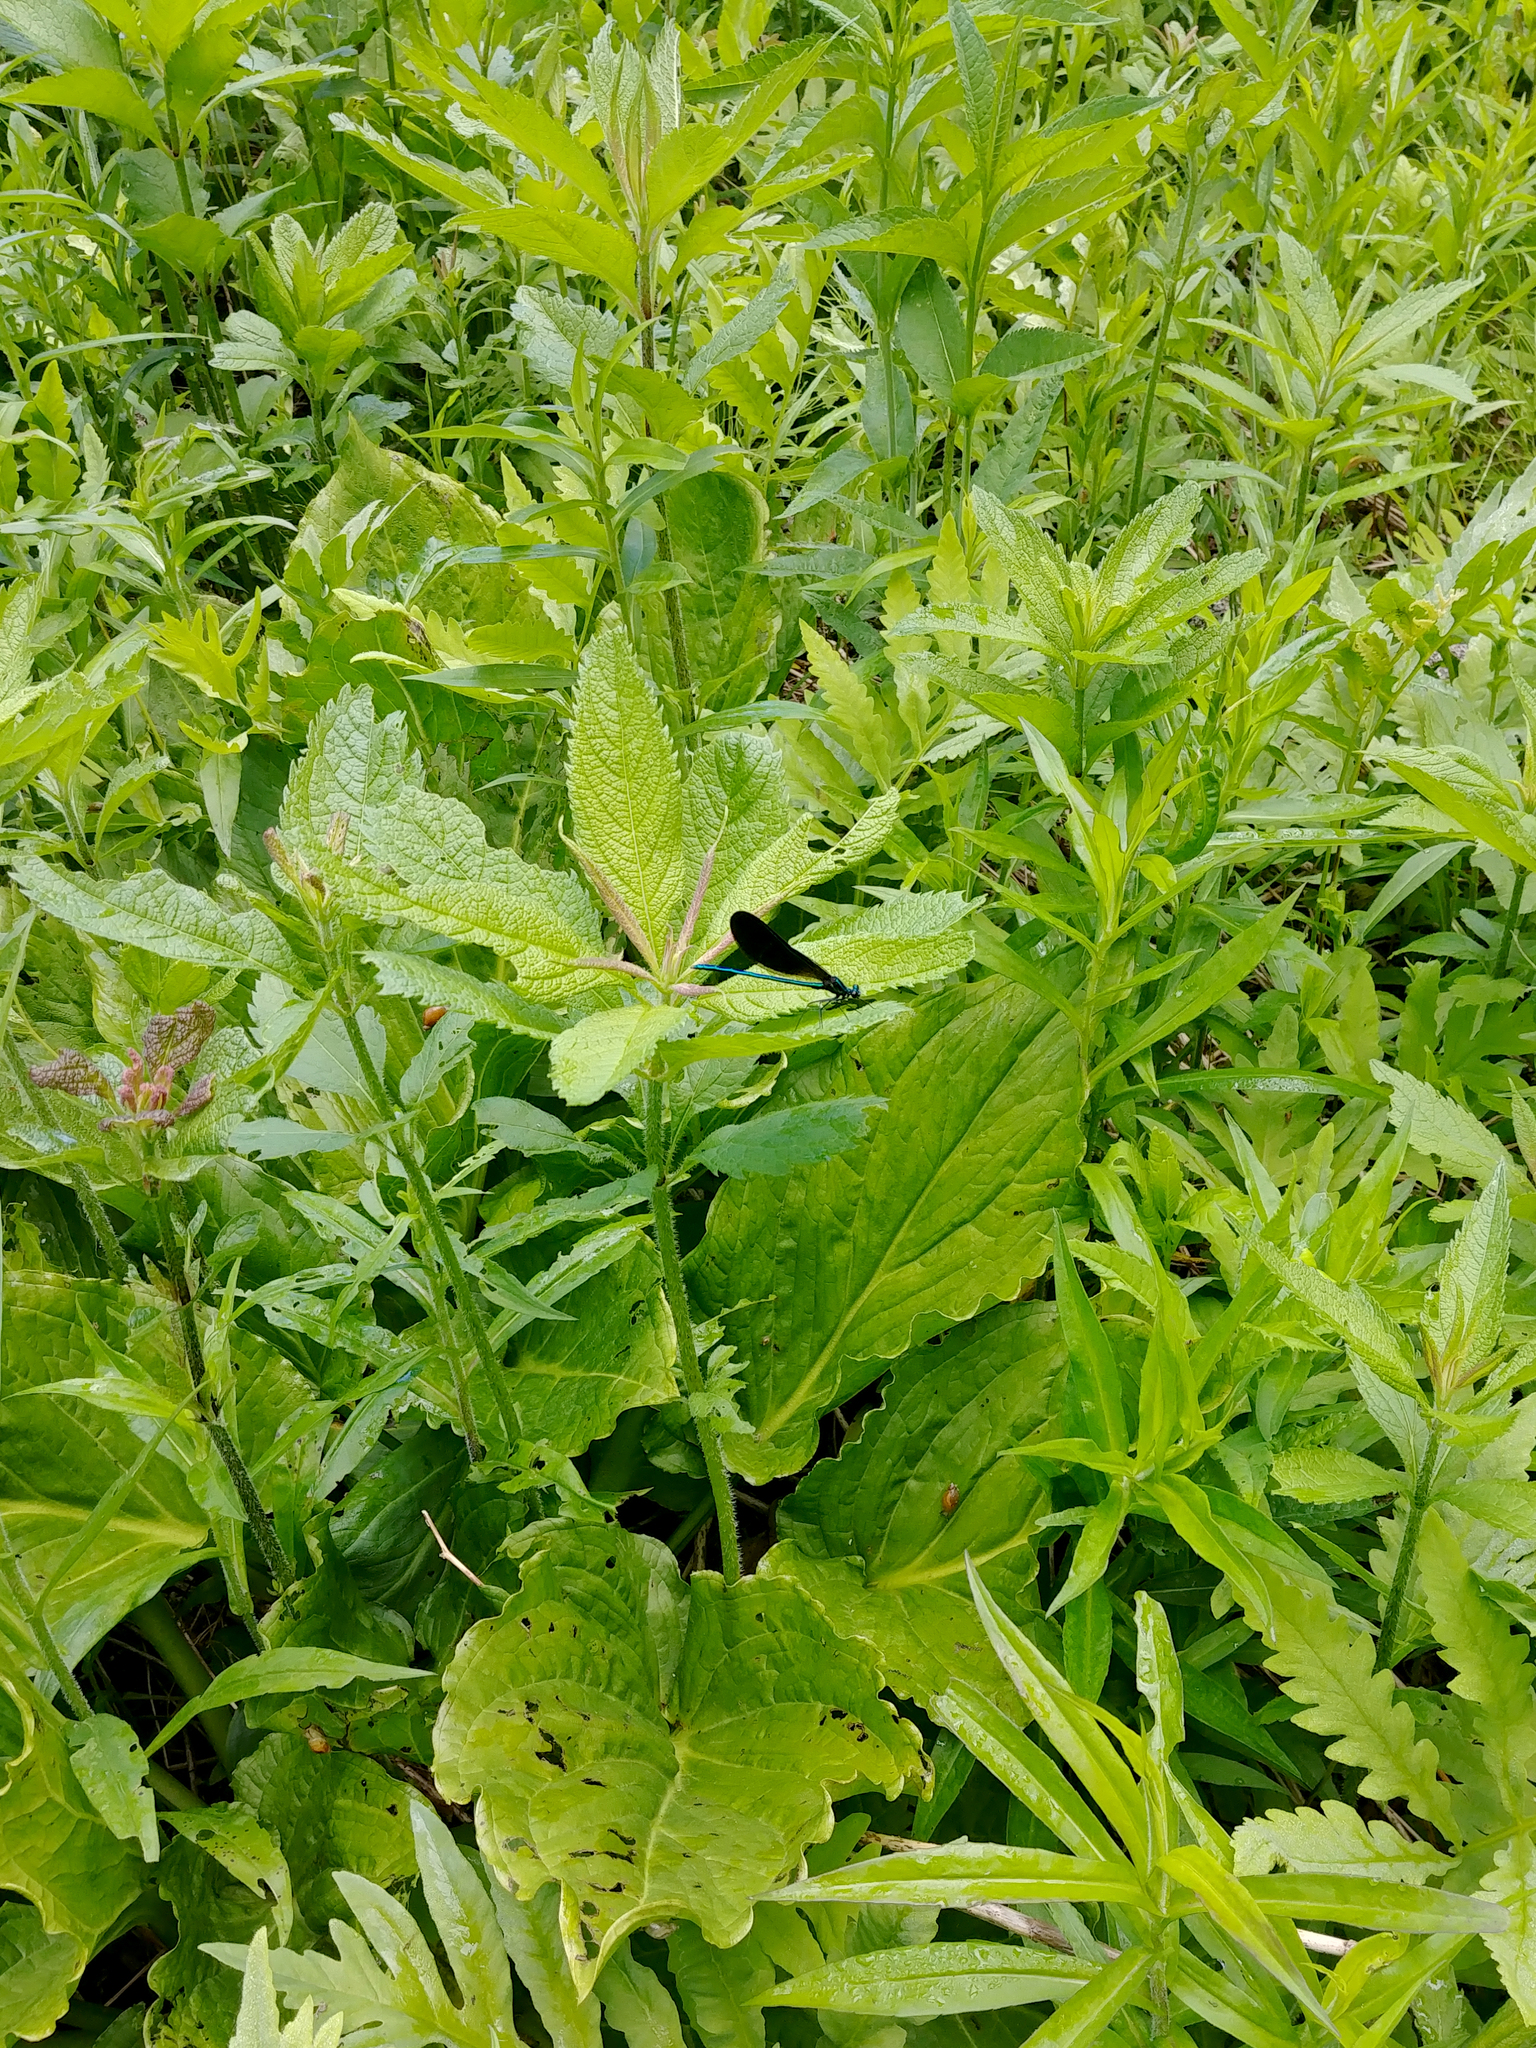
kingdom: Animalia
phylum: Arthropoda
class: Insecta
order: Odonata
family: Calopterygidae
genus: Calopteryx
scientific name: Calopteryx maculata
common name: Ebony jewelwing
